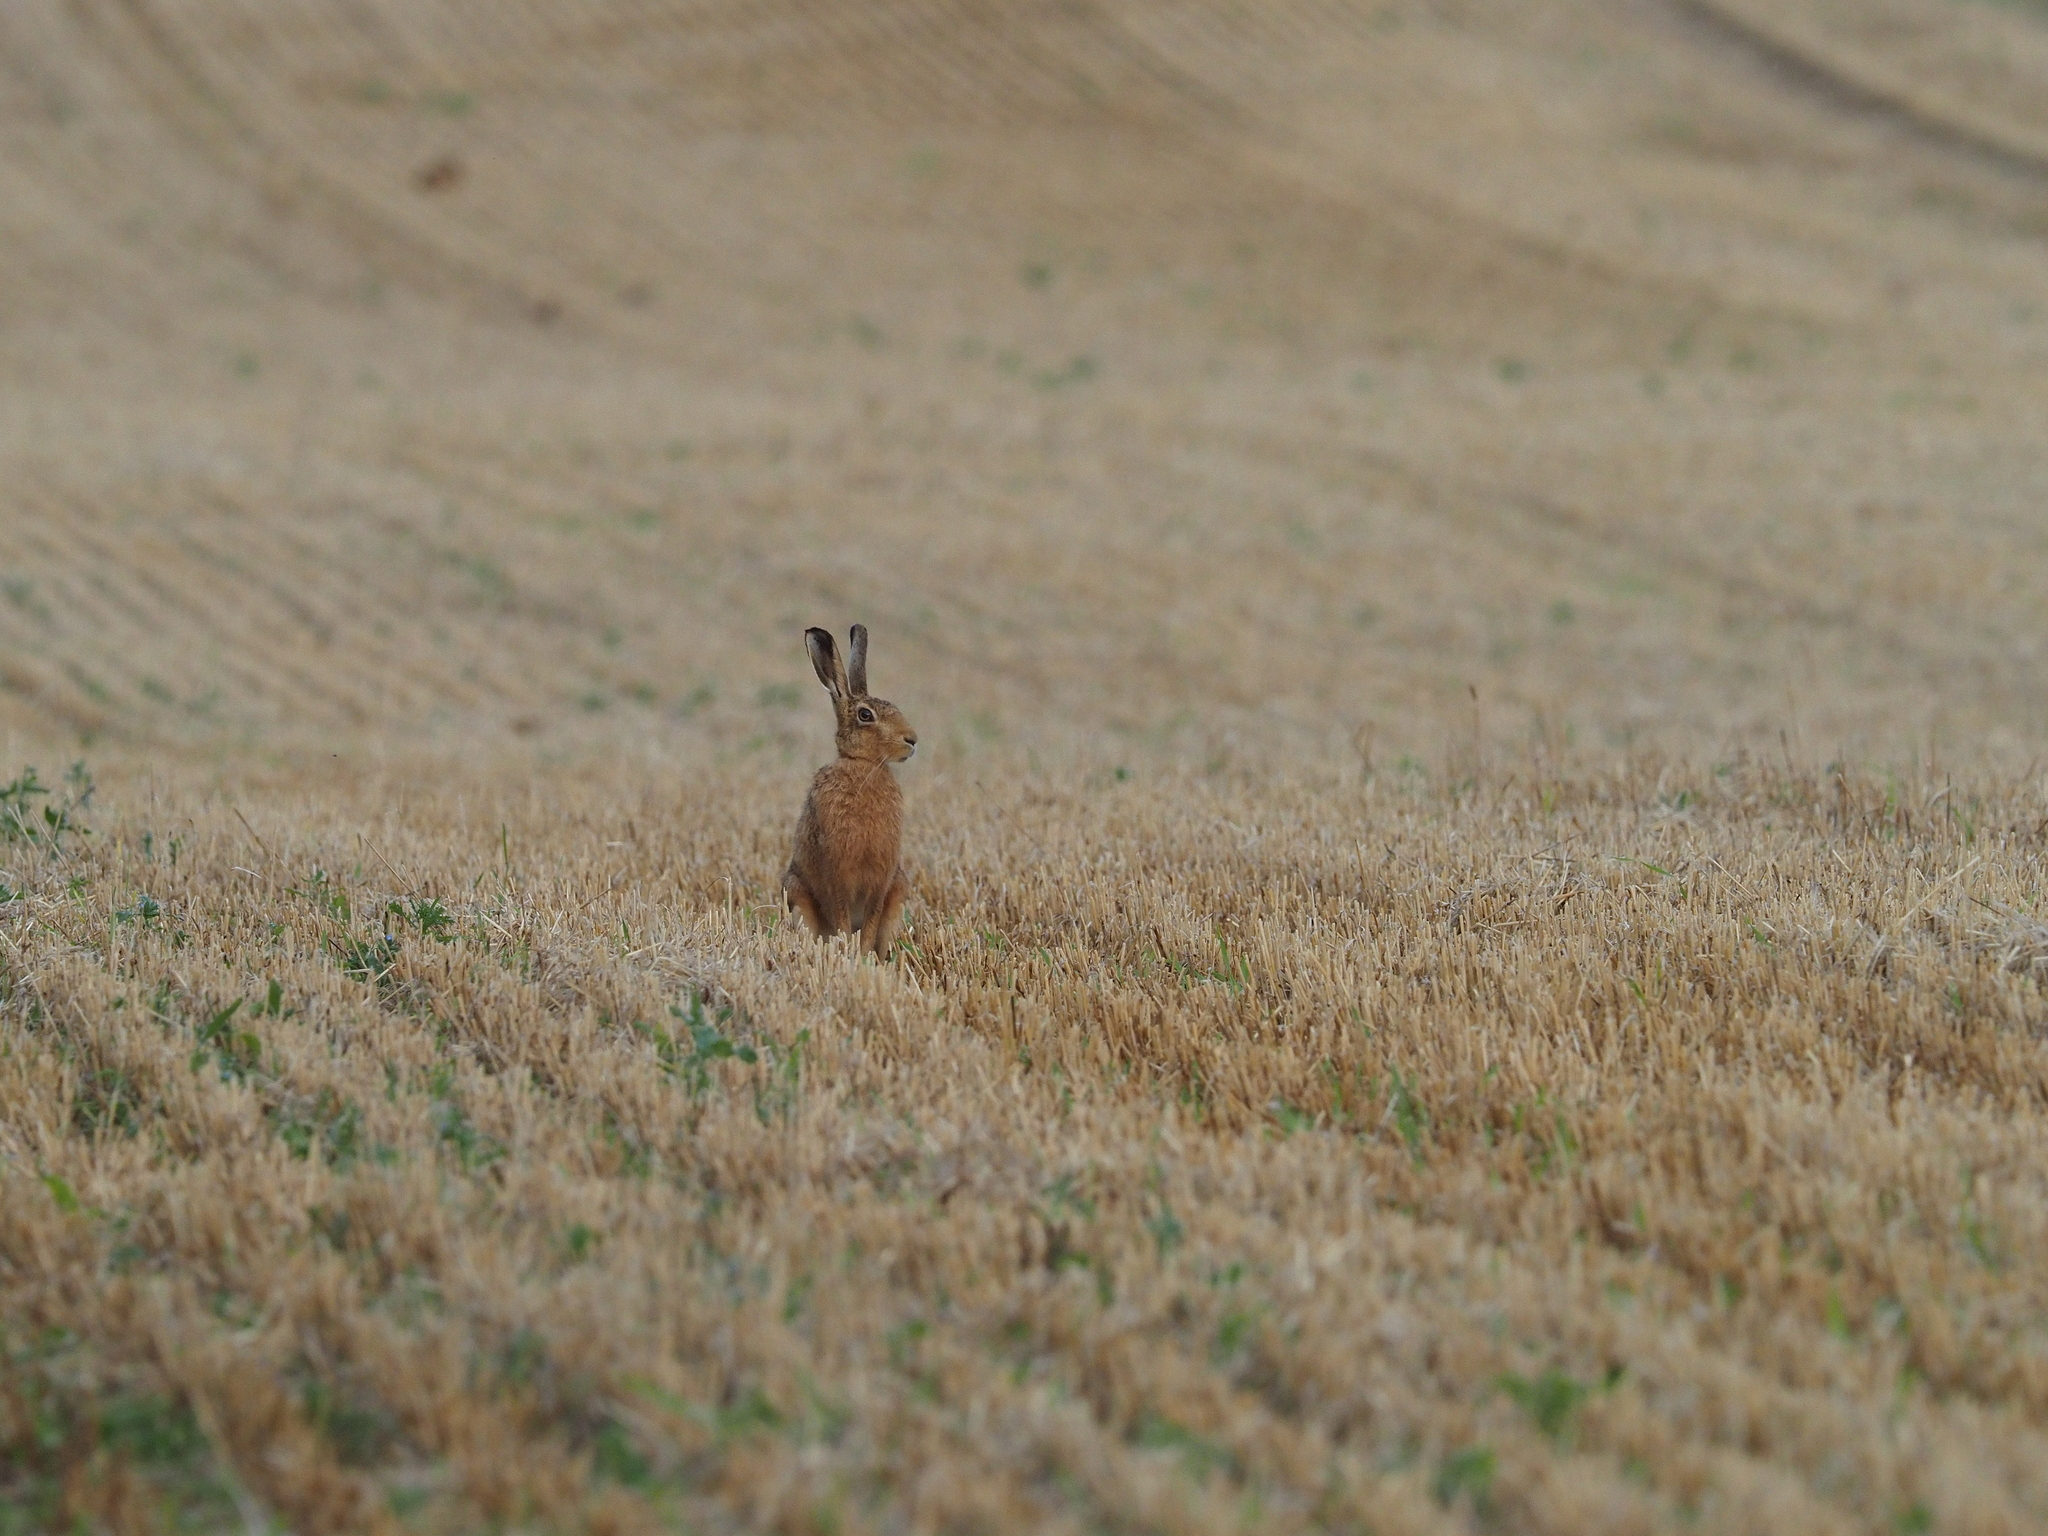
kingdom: Animalia
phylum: Chordata
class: Mammalia
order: Lagomorpha
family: Leporidae
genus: Lepus
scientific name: Lepus europaeus
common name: European hare
